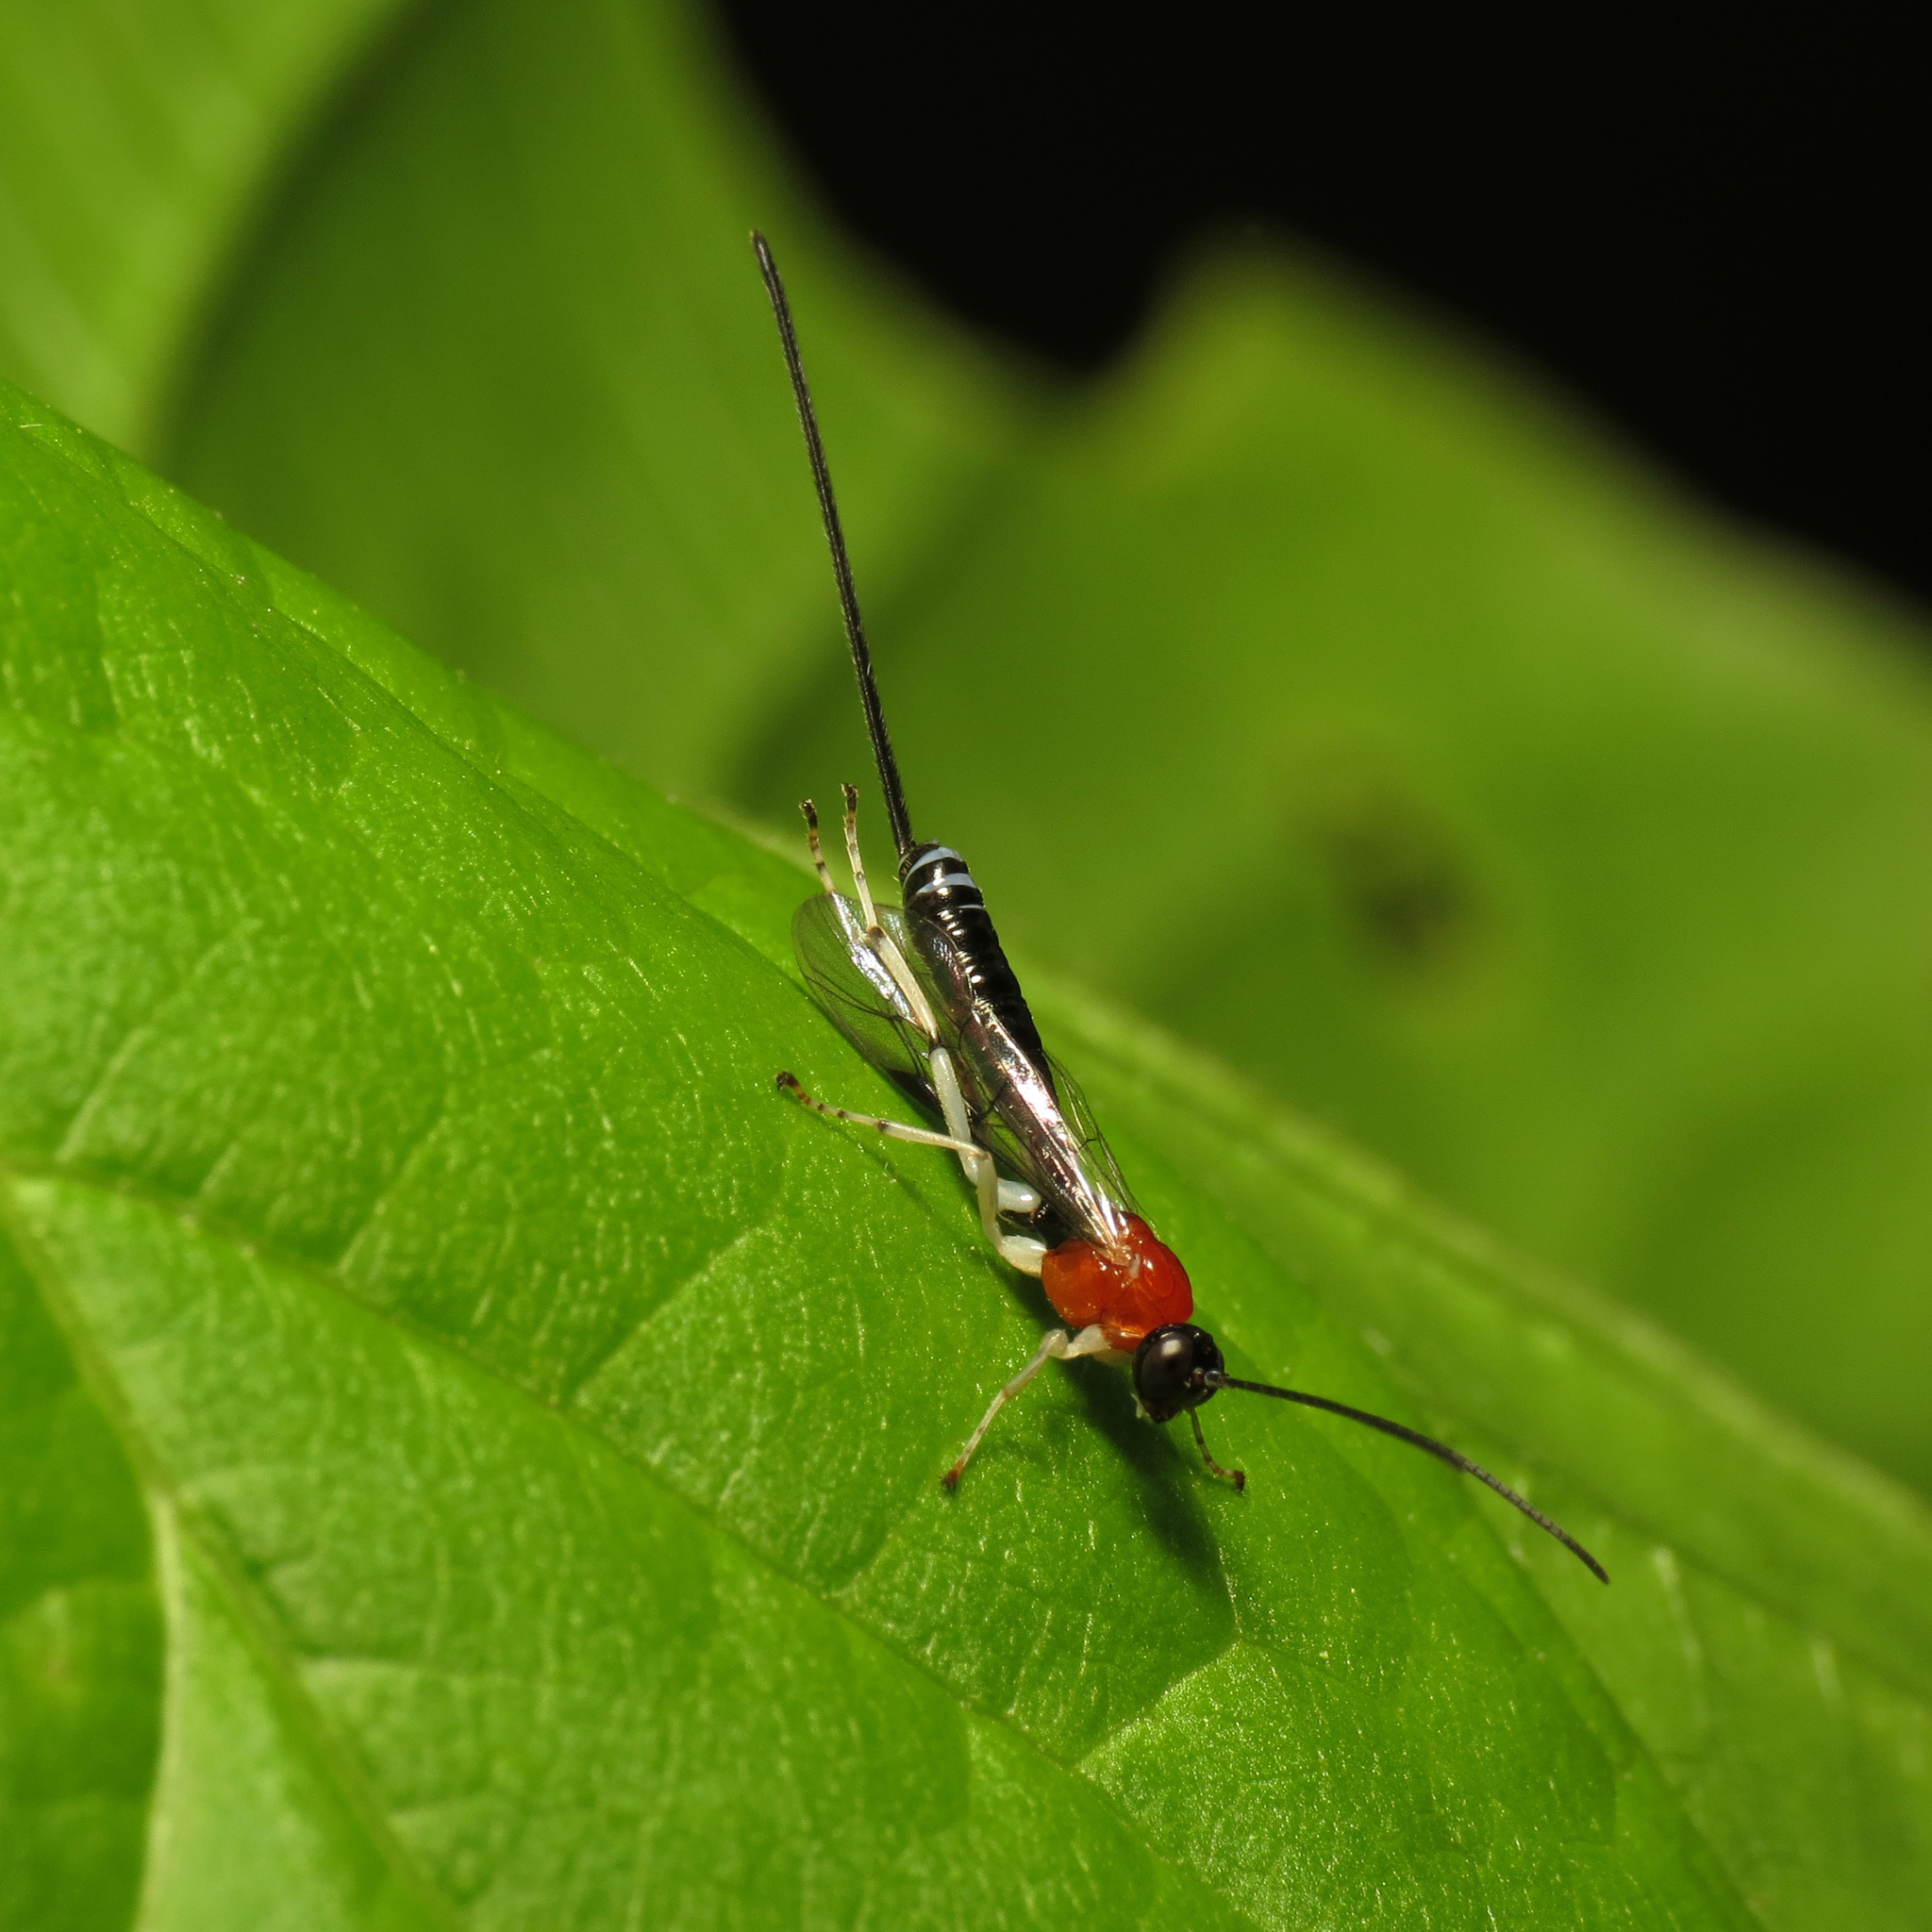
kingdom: Animalia
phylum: Arthropoda
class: Insecta
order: Hymenoptera
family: Ichneumonidae
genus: Calliephialtes
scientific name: Calliephialtes grapholithae
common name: Parasitoid wasp
